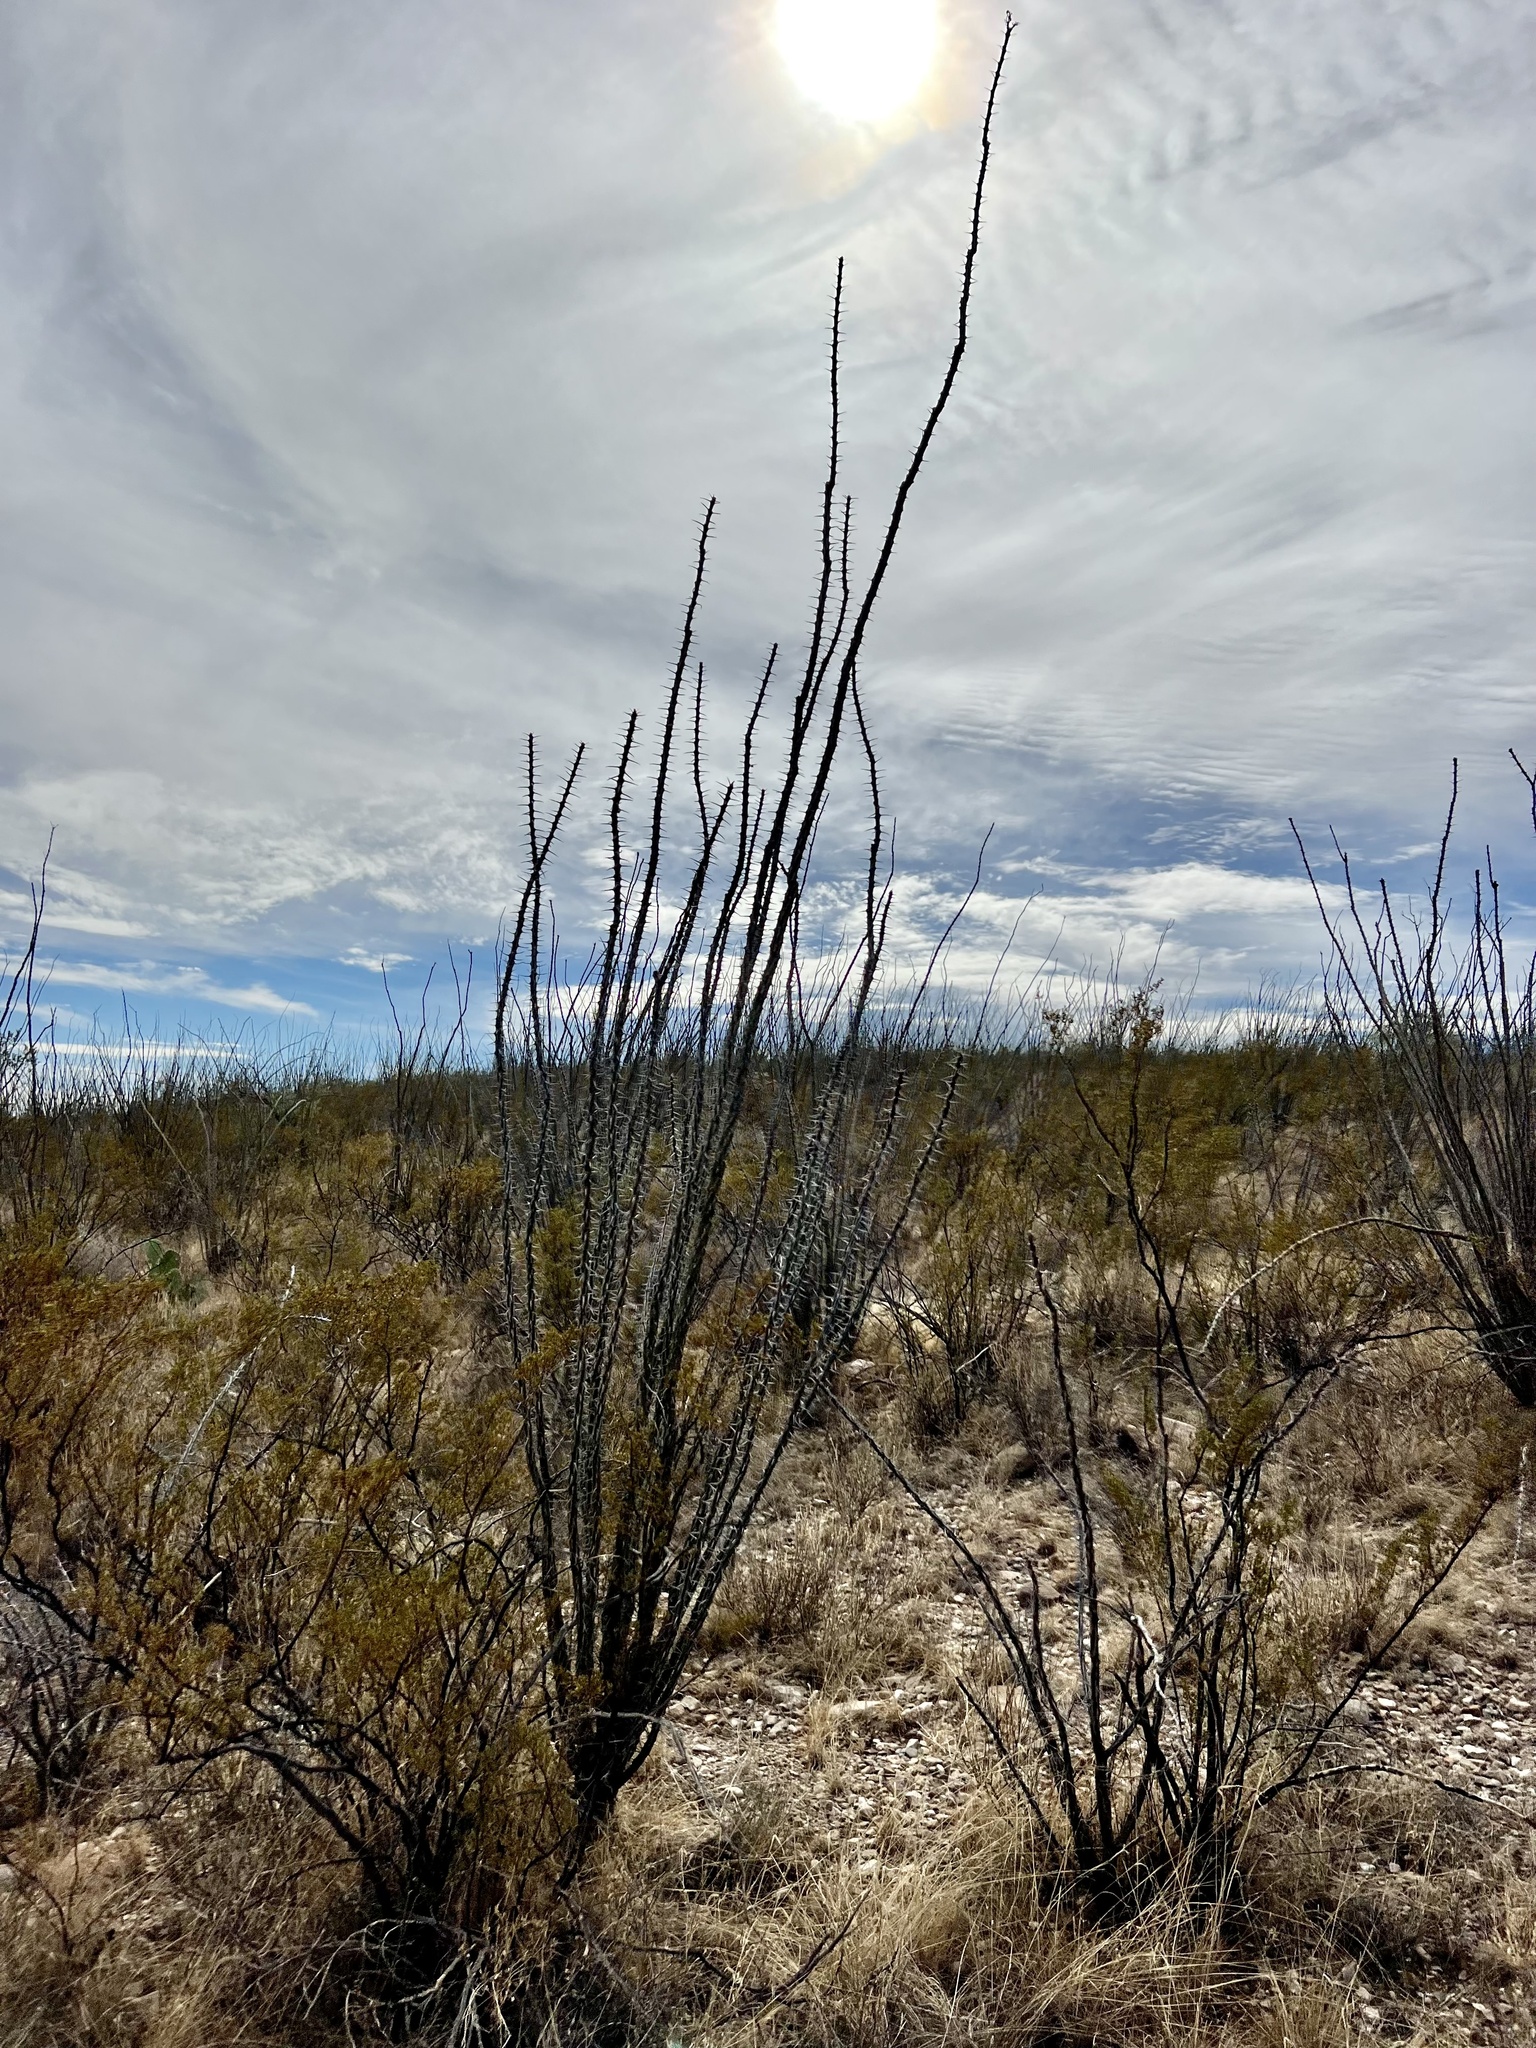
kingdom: Plantae
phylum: Tracheophyta
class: Magnoliopsida
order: Ericales
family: Fouquieriaceae
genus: Fouquieria
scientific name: Fouquieria splendens
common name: Vine-cactus
